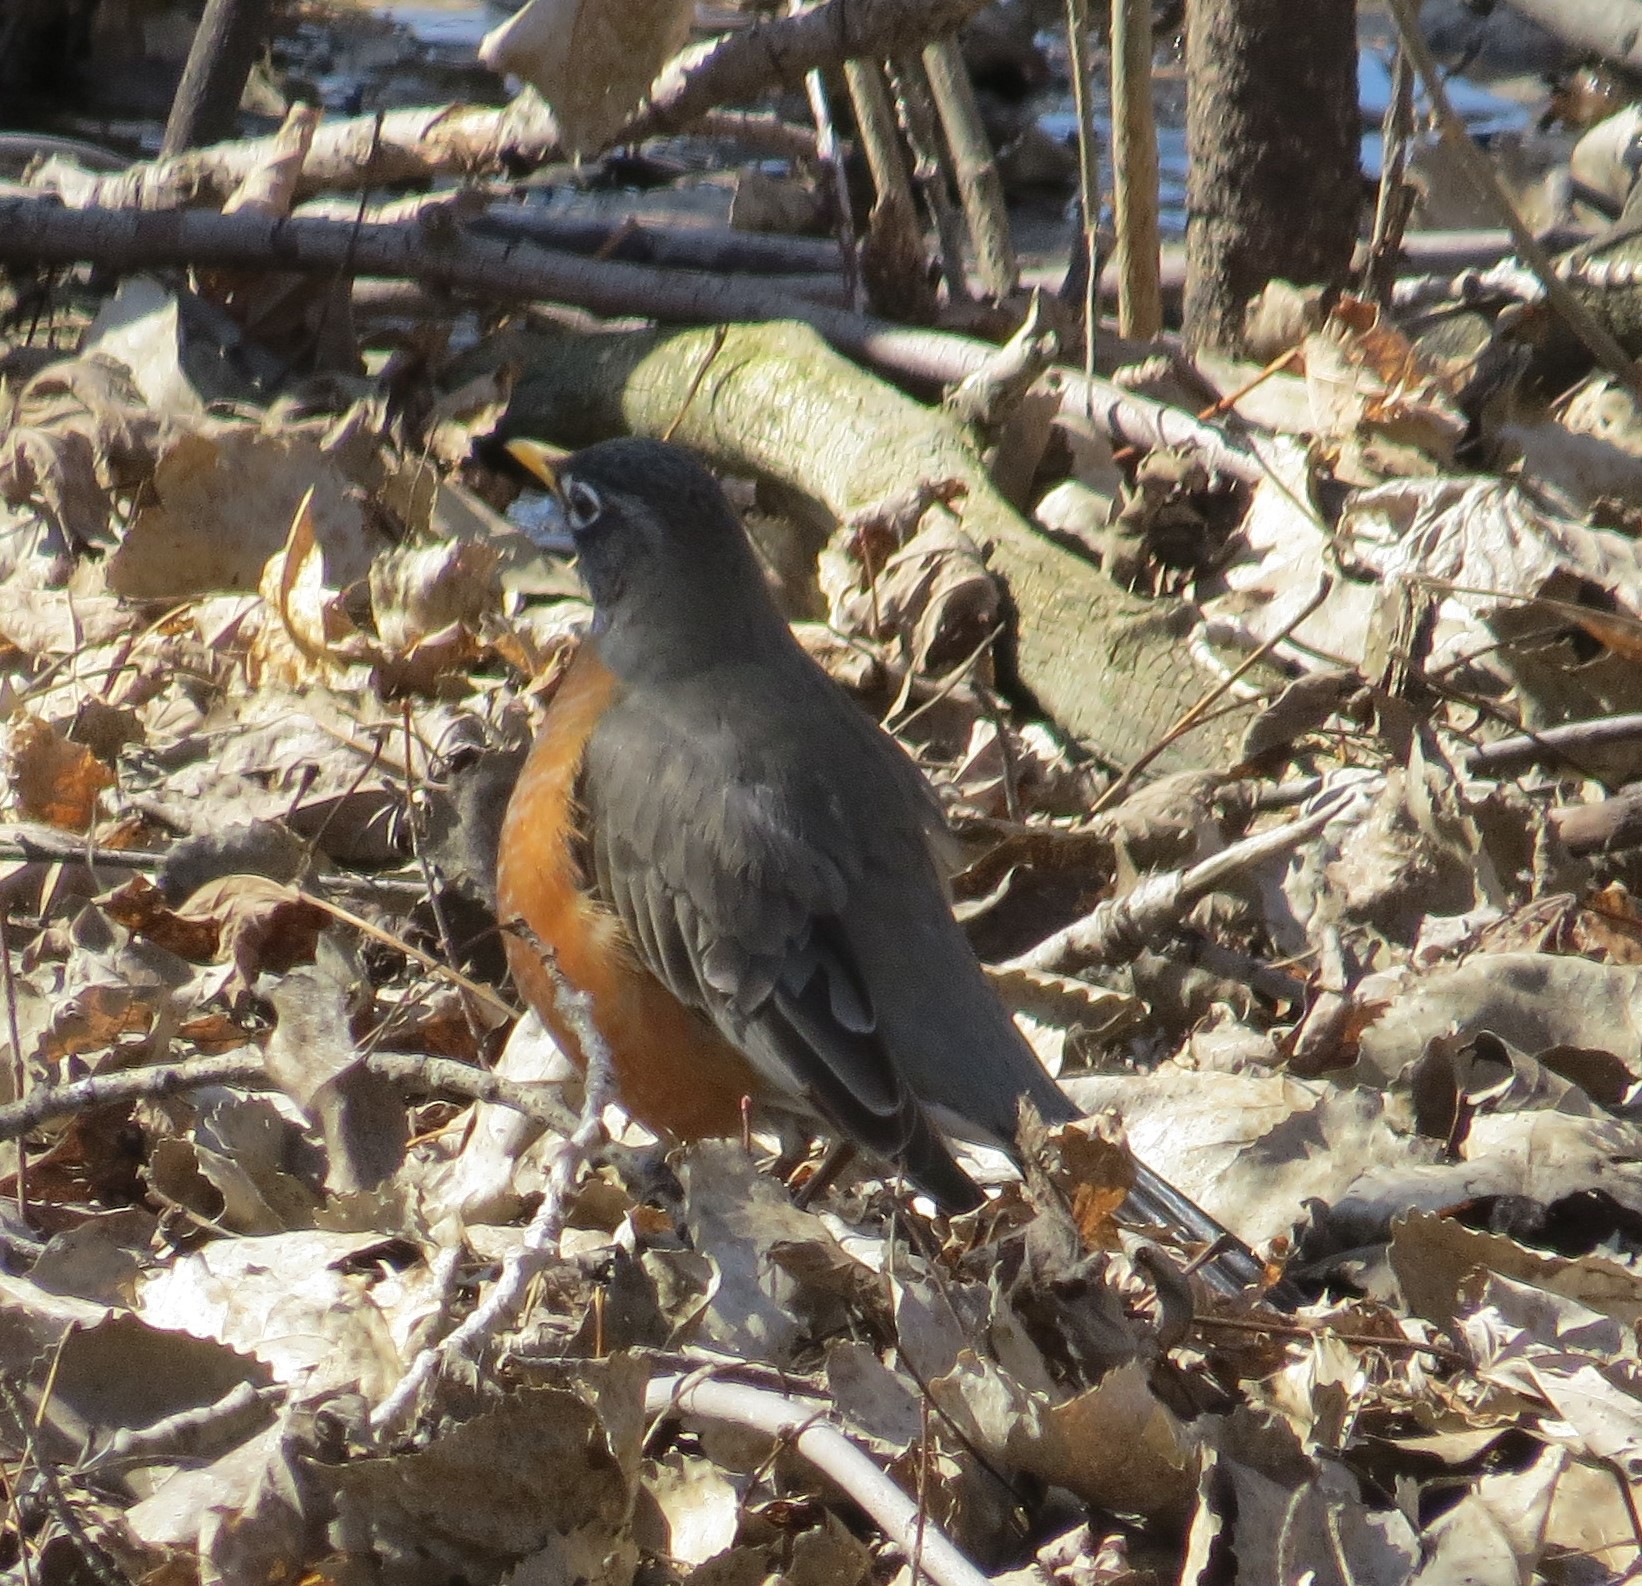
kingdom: Animalia
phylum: Chordata
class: Aves
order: Passeriformes
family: Turdidae
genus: Turdus
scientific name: Turdus migratorius
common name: American robin
